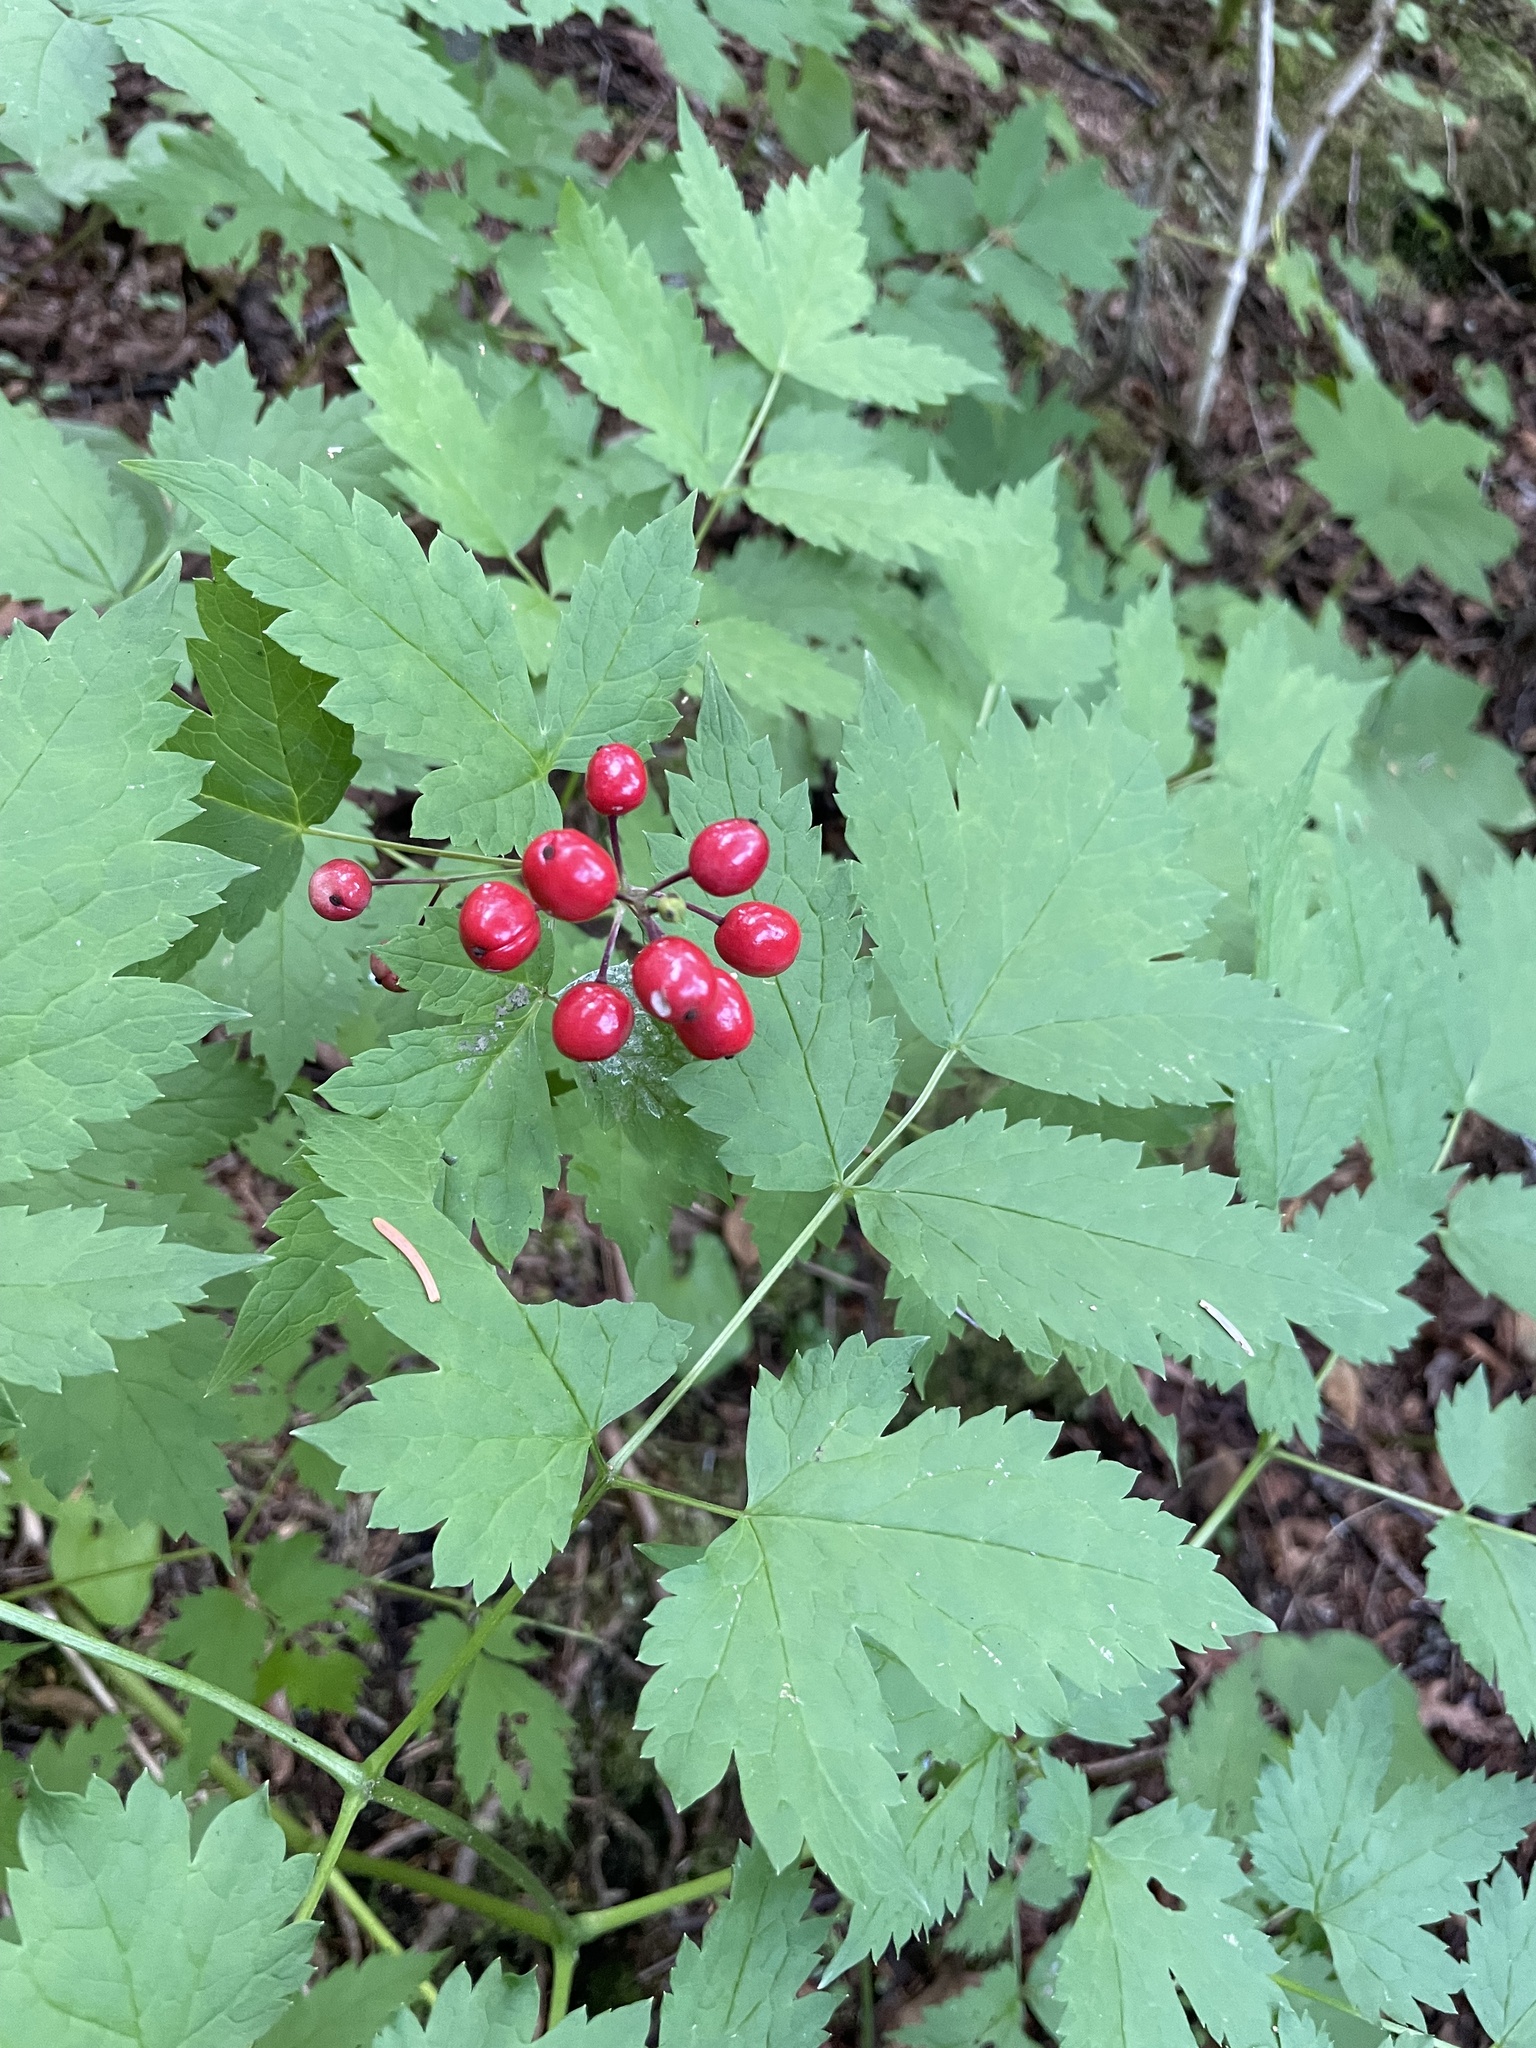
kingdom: Plantae
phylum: Tracheophyta
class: Magnoliopsida
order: Ranunculales
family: Ranunculaceae
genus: Actaea
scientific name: Actaea rubra
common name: Red baneberry
